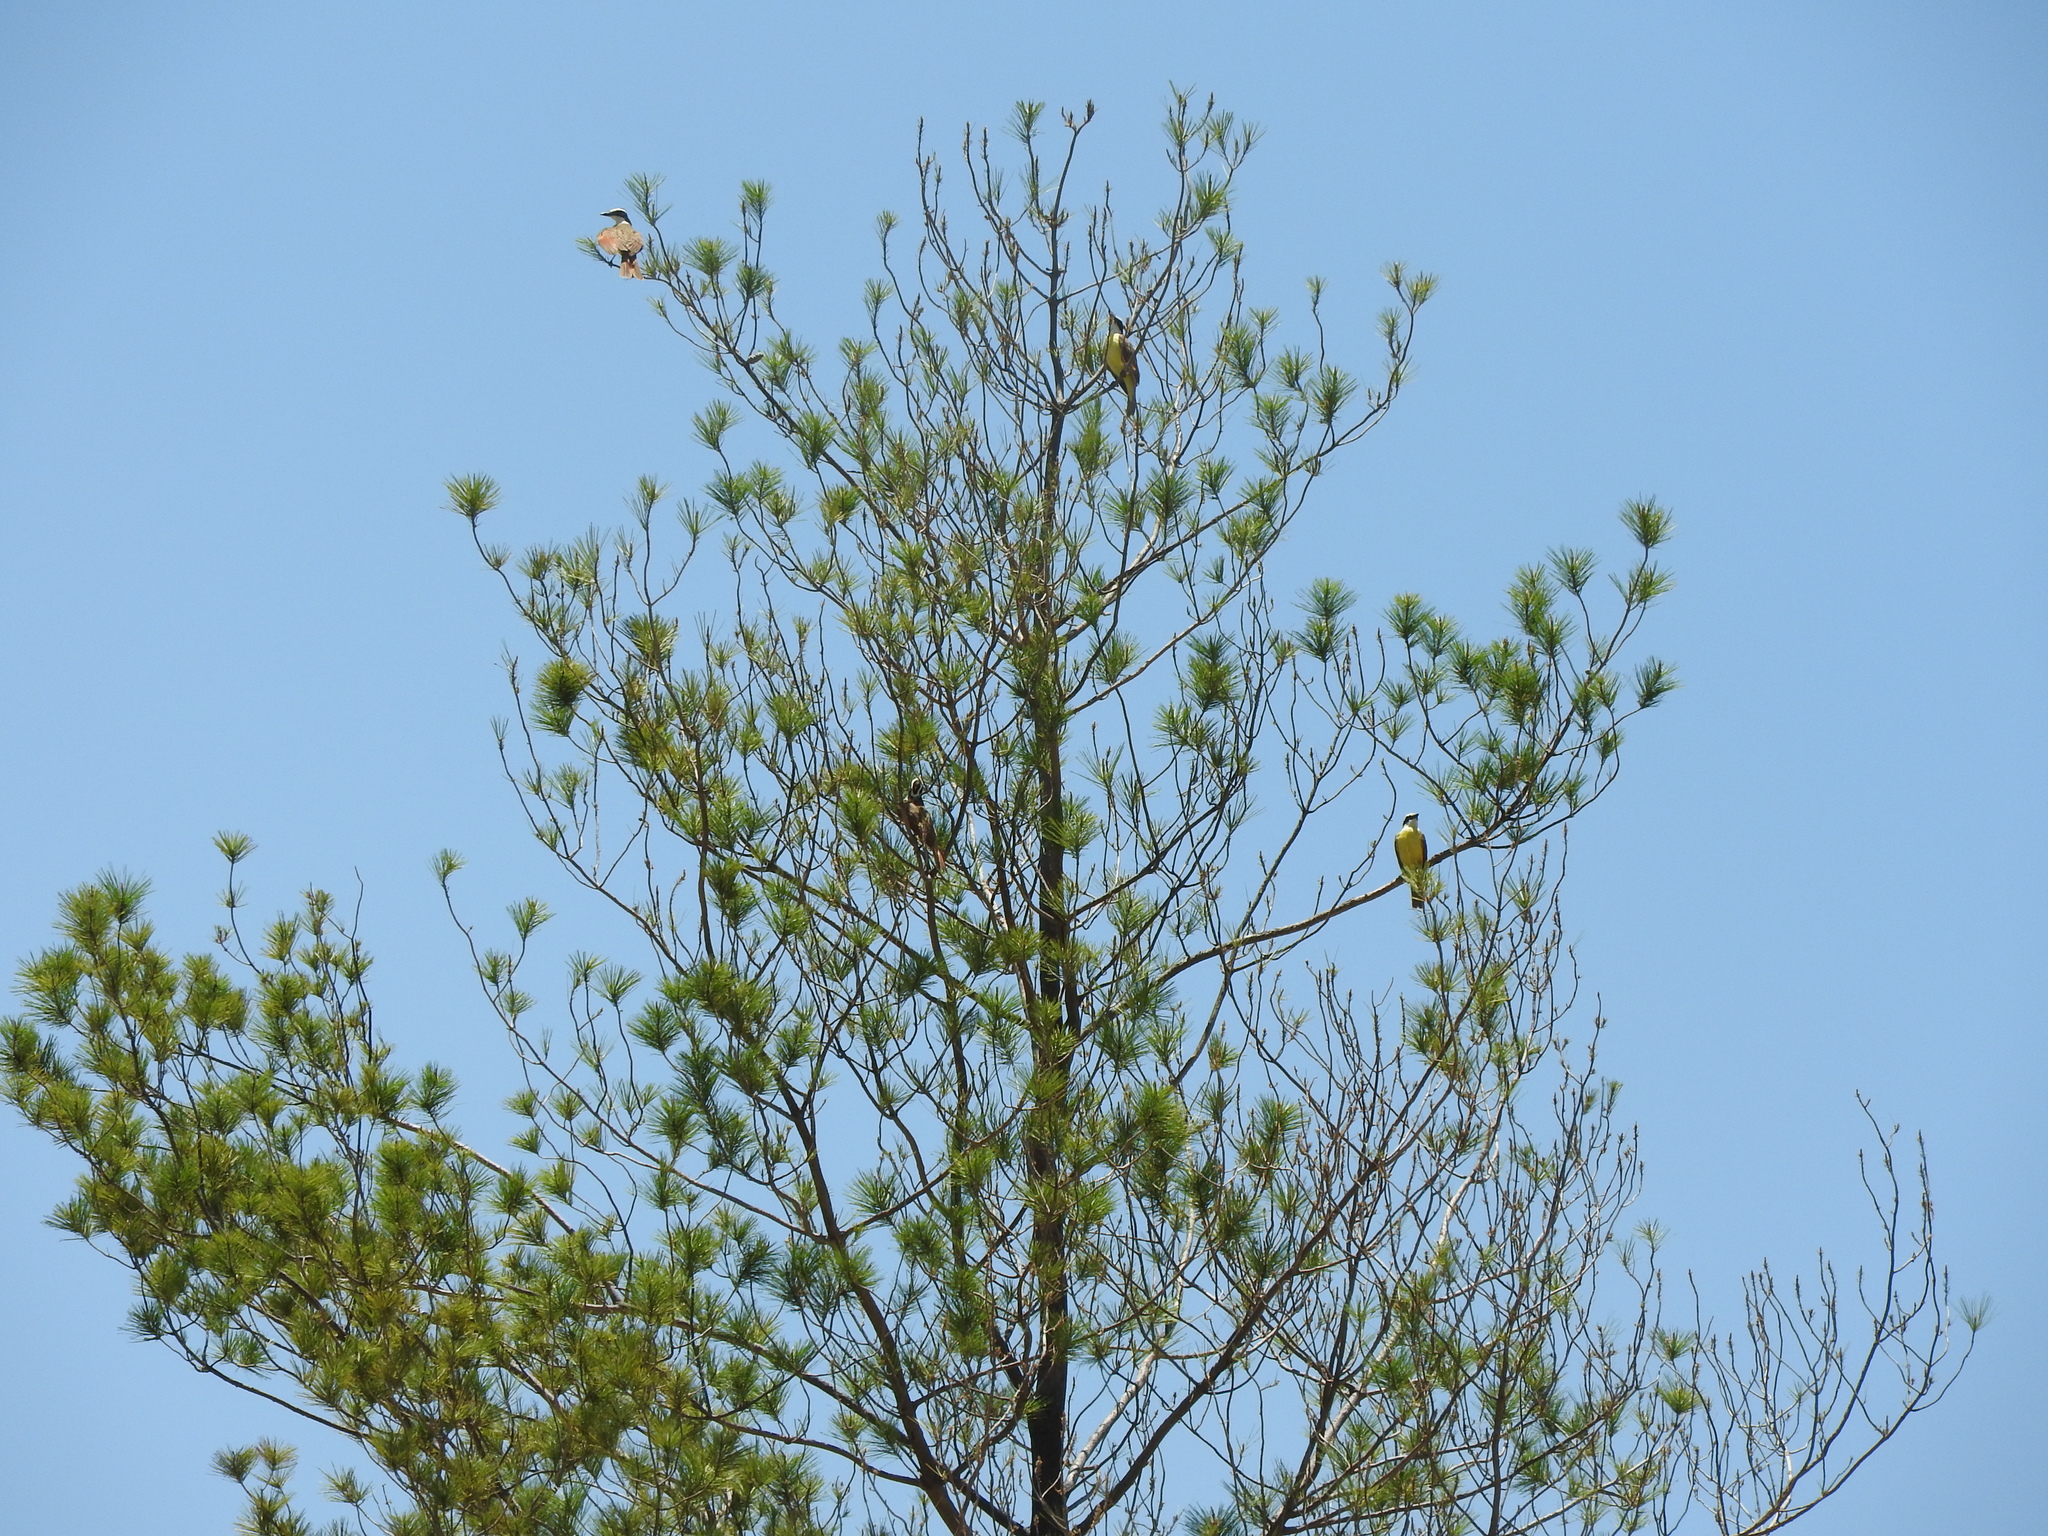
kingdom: Animalia
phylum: Chordata
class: Aves
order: Passeriformes
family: Tyrannidae
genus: Pitangus
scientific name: Pitangus sulphuratus
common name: Great kiskadee
